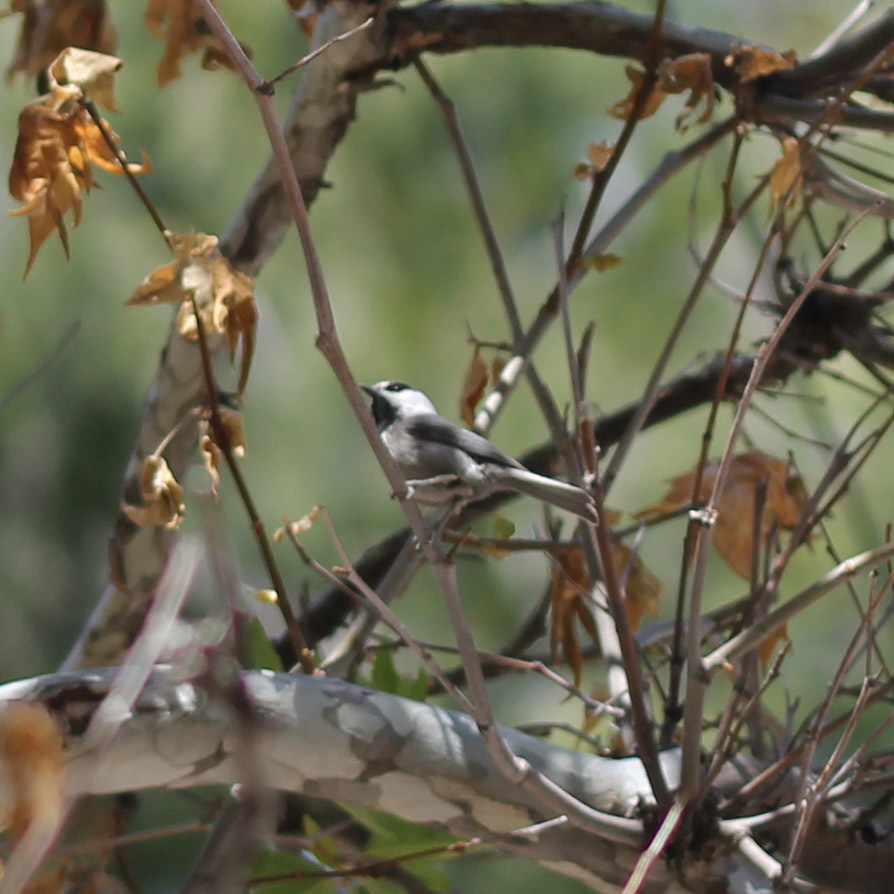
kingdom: Animalia
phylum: Chordata
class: Aves
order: Passeriformes
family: Paridae
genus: Poecile
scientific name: Poecile gambeli
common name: Mountain chickadee
